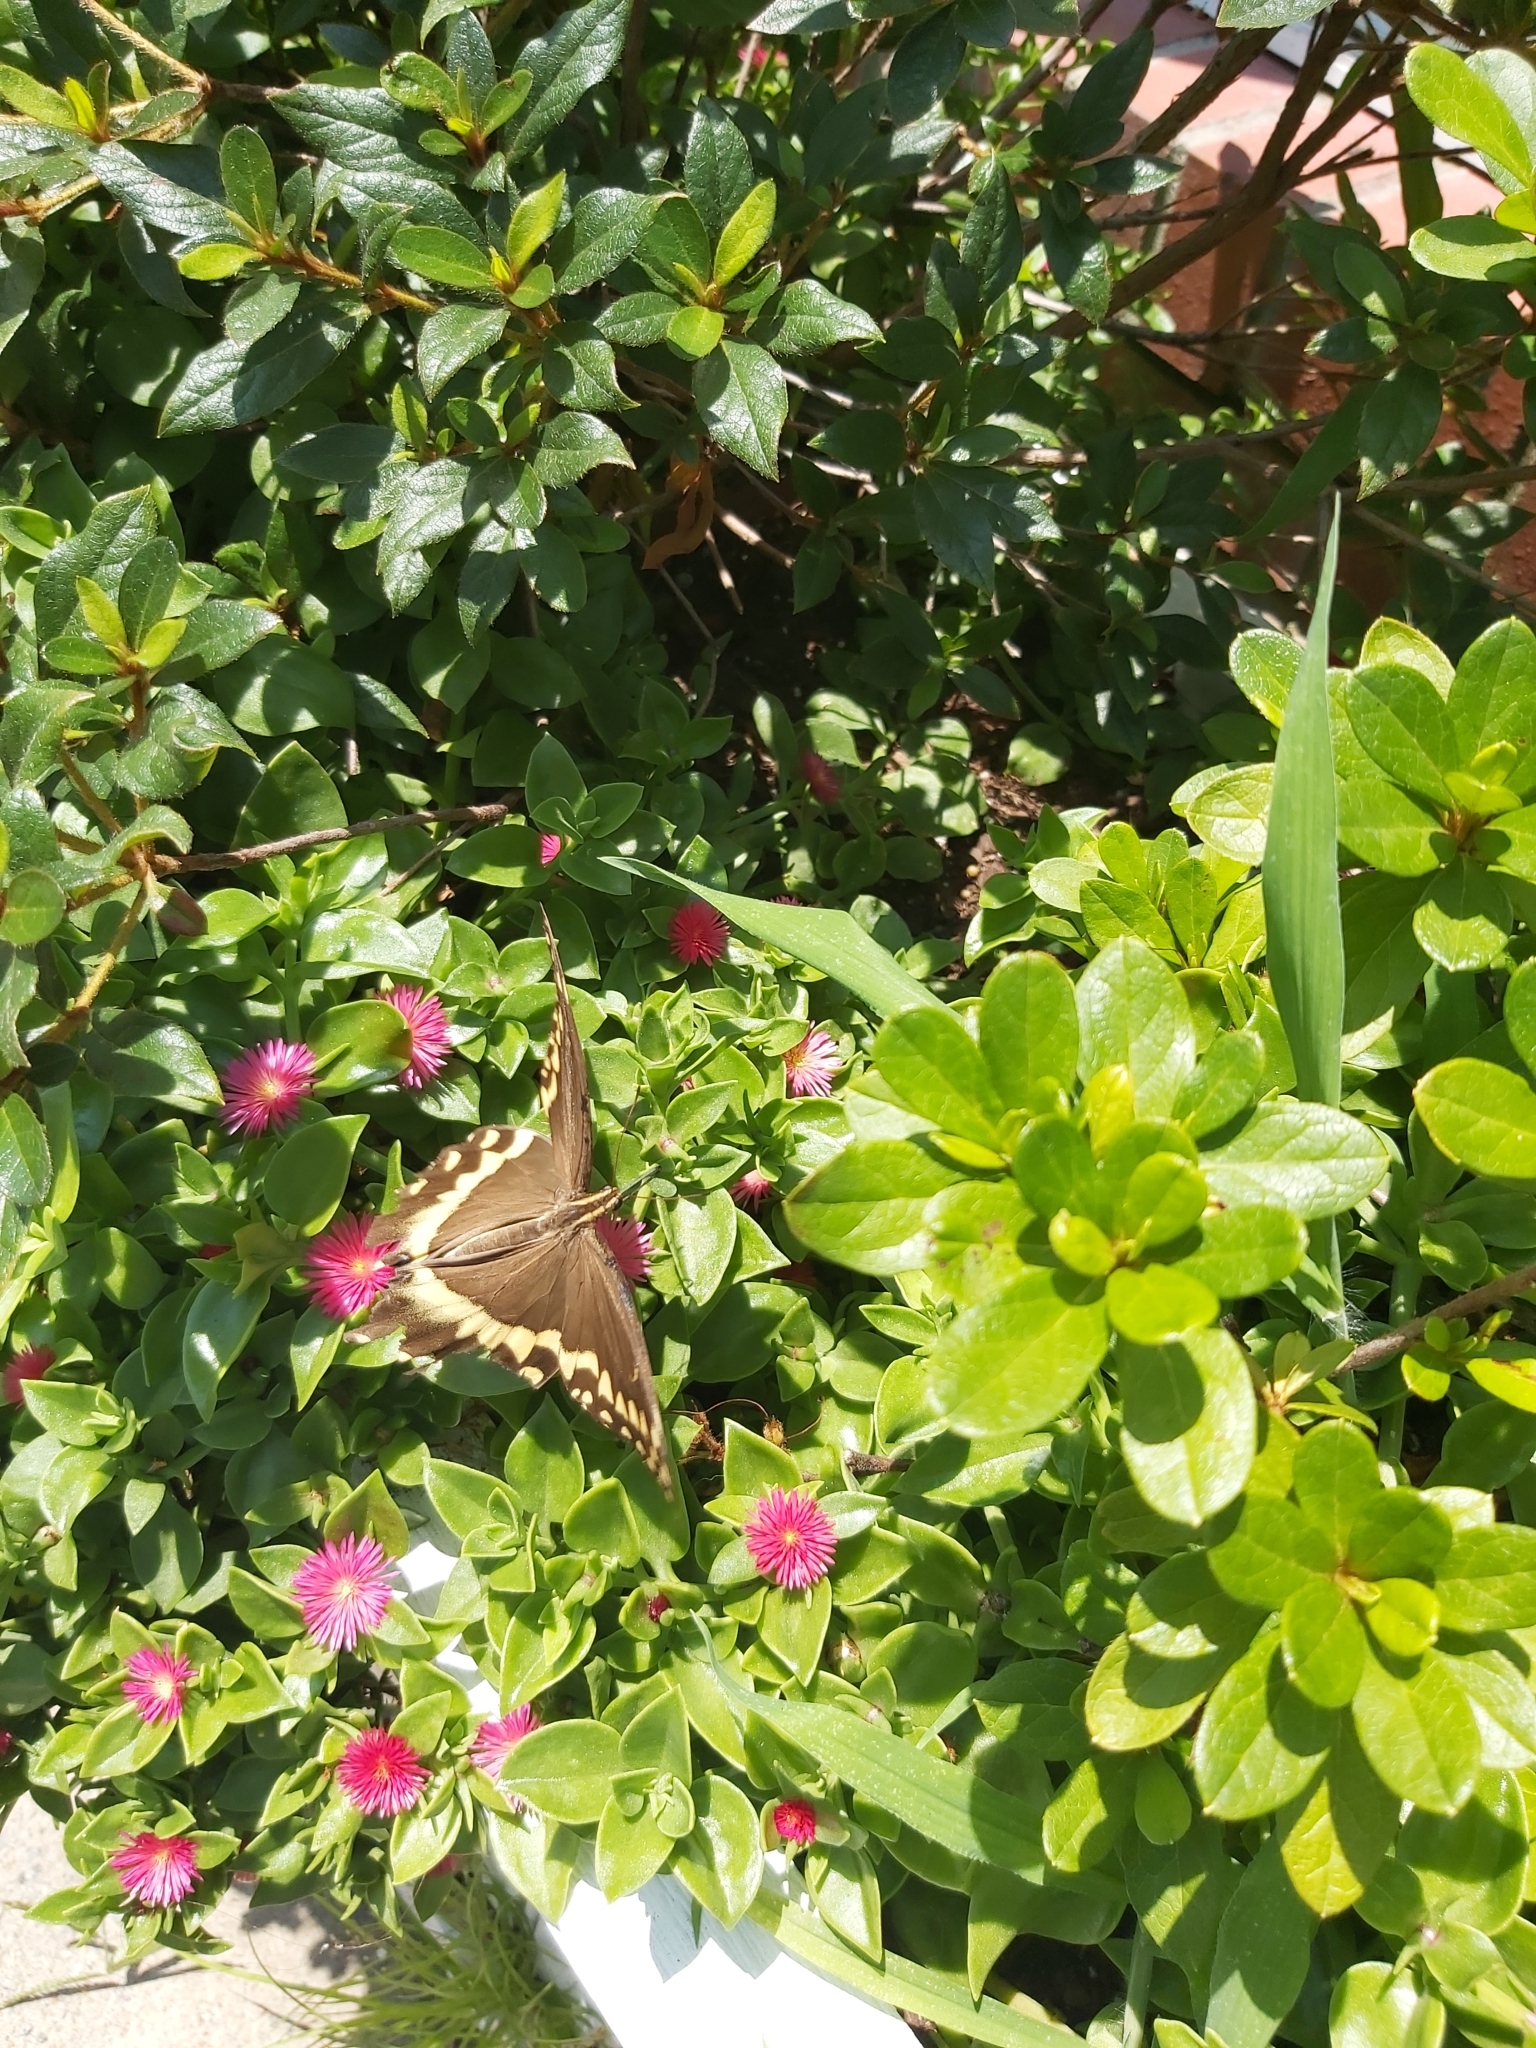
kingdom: Animalia
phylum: Arthropoda
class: Insecta
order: Lepidoptera
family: Papilionidae
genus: Papilio
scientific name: Papilio palamedes
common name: Palamedes swallowtail
